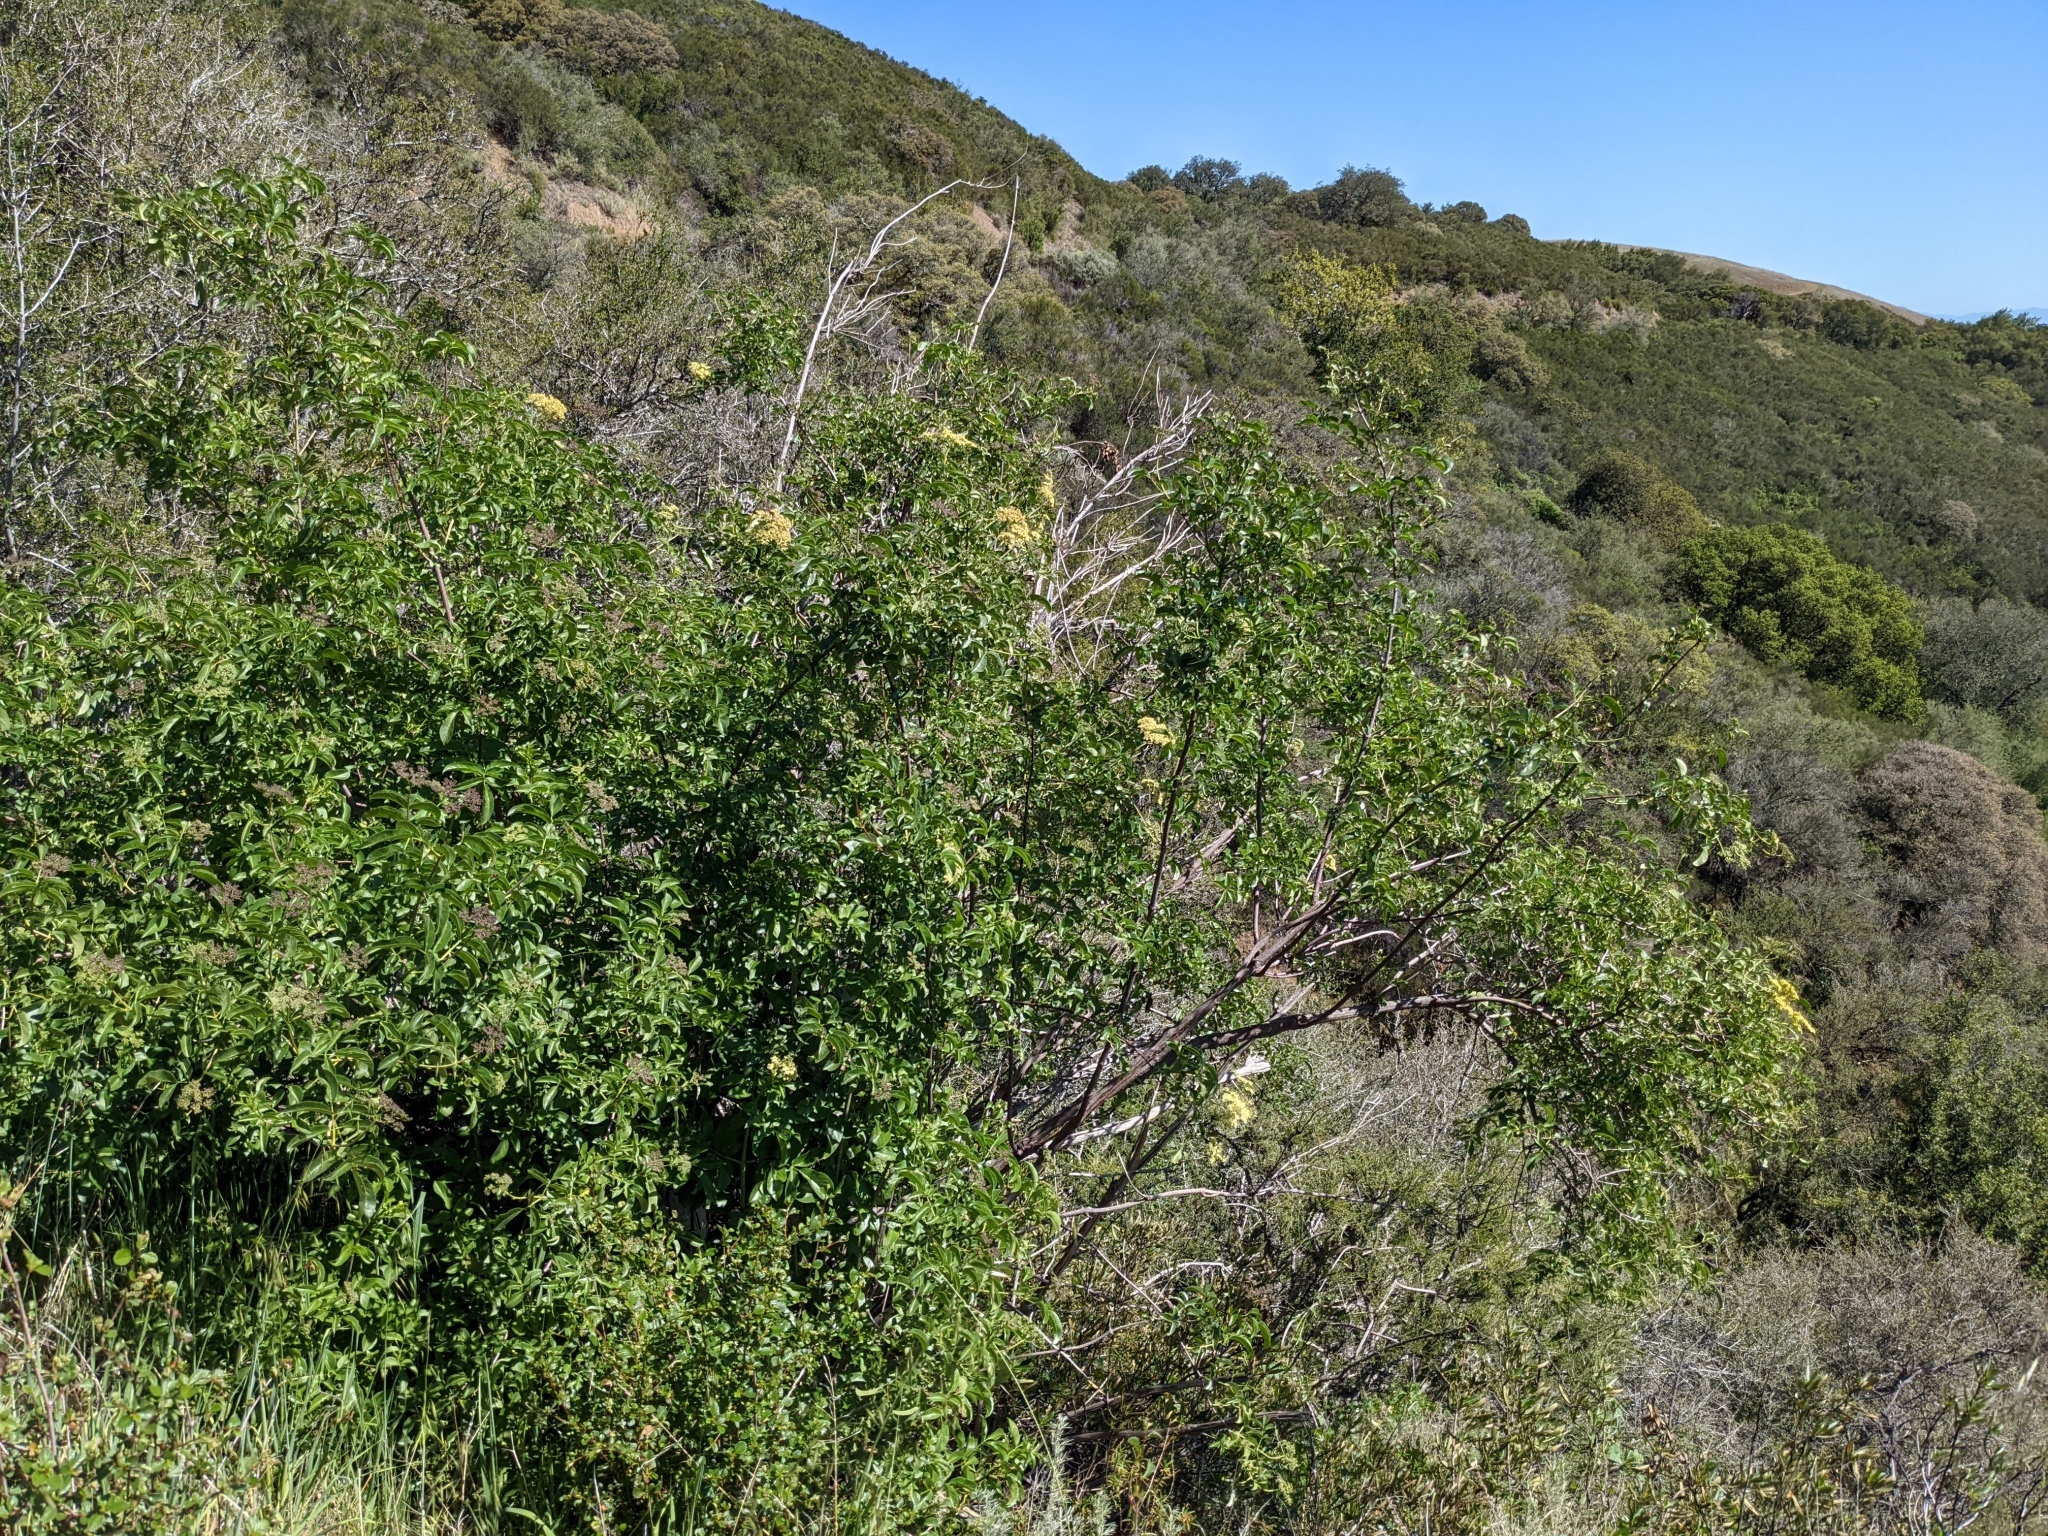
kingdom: Plantae
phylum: Tracheophyta
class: Magnoliopsida
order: Dipsacales
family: Viburnaceae
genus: Sambucus
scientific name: Sambucus cerulea
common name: Blue elder
